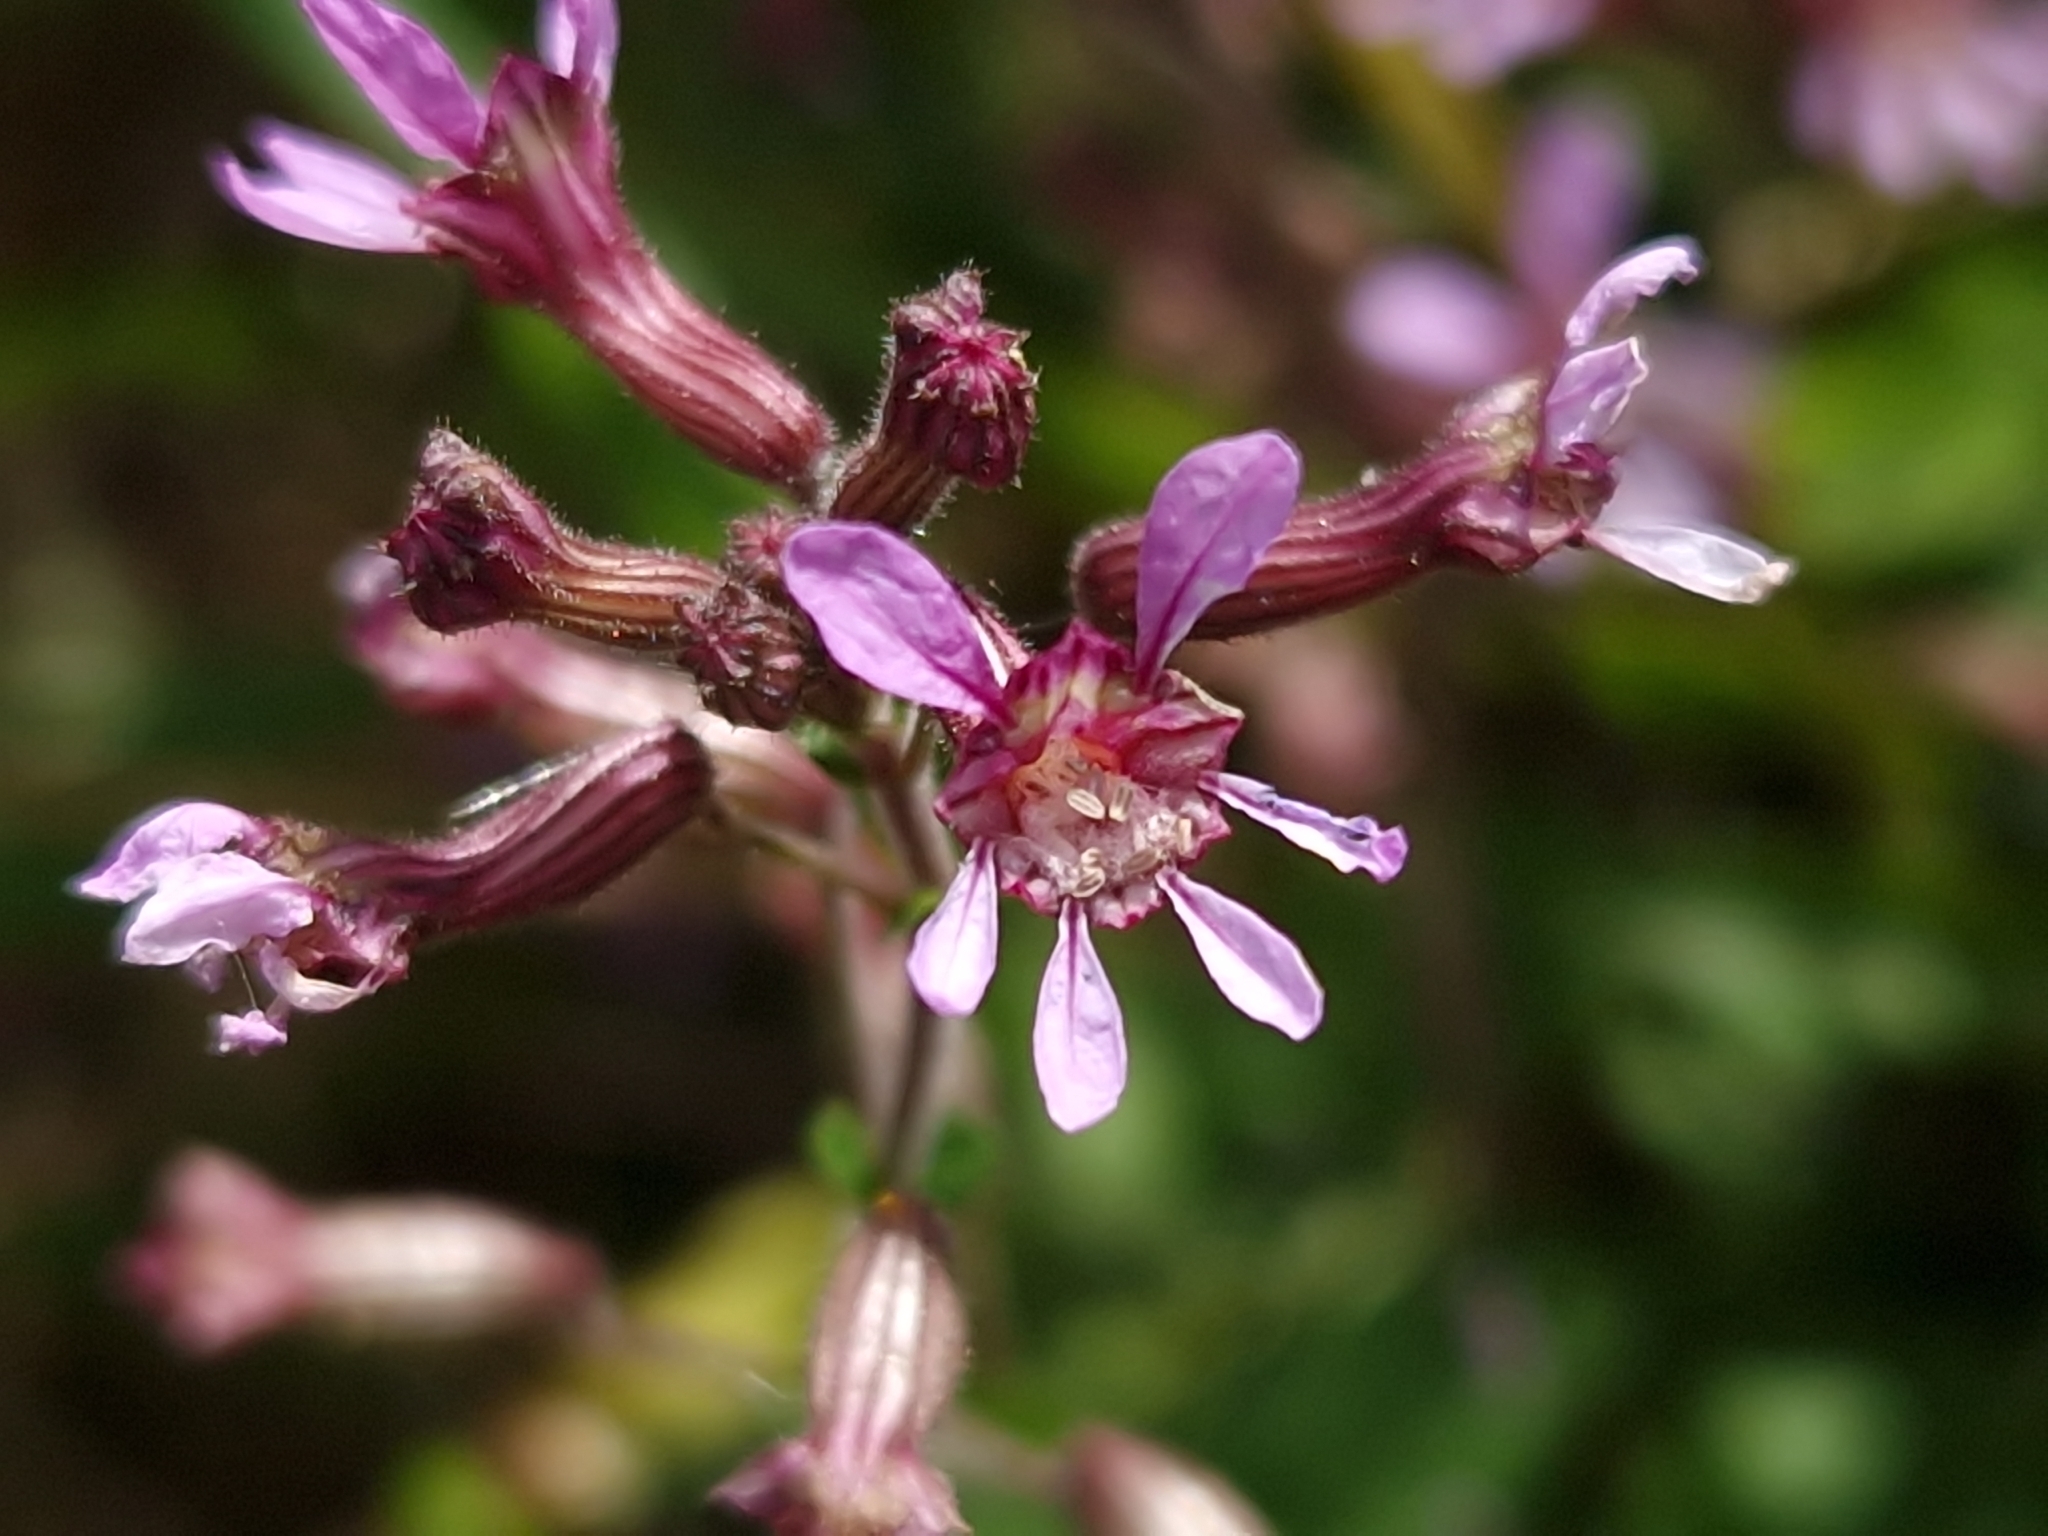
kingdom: Plantae
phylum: Tracheophyta
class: Magnoliopsida
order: Myrtales
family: Lythraceae
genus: Cuphea
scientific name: Cuphea racemosa
